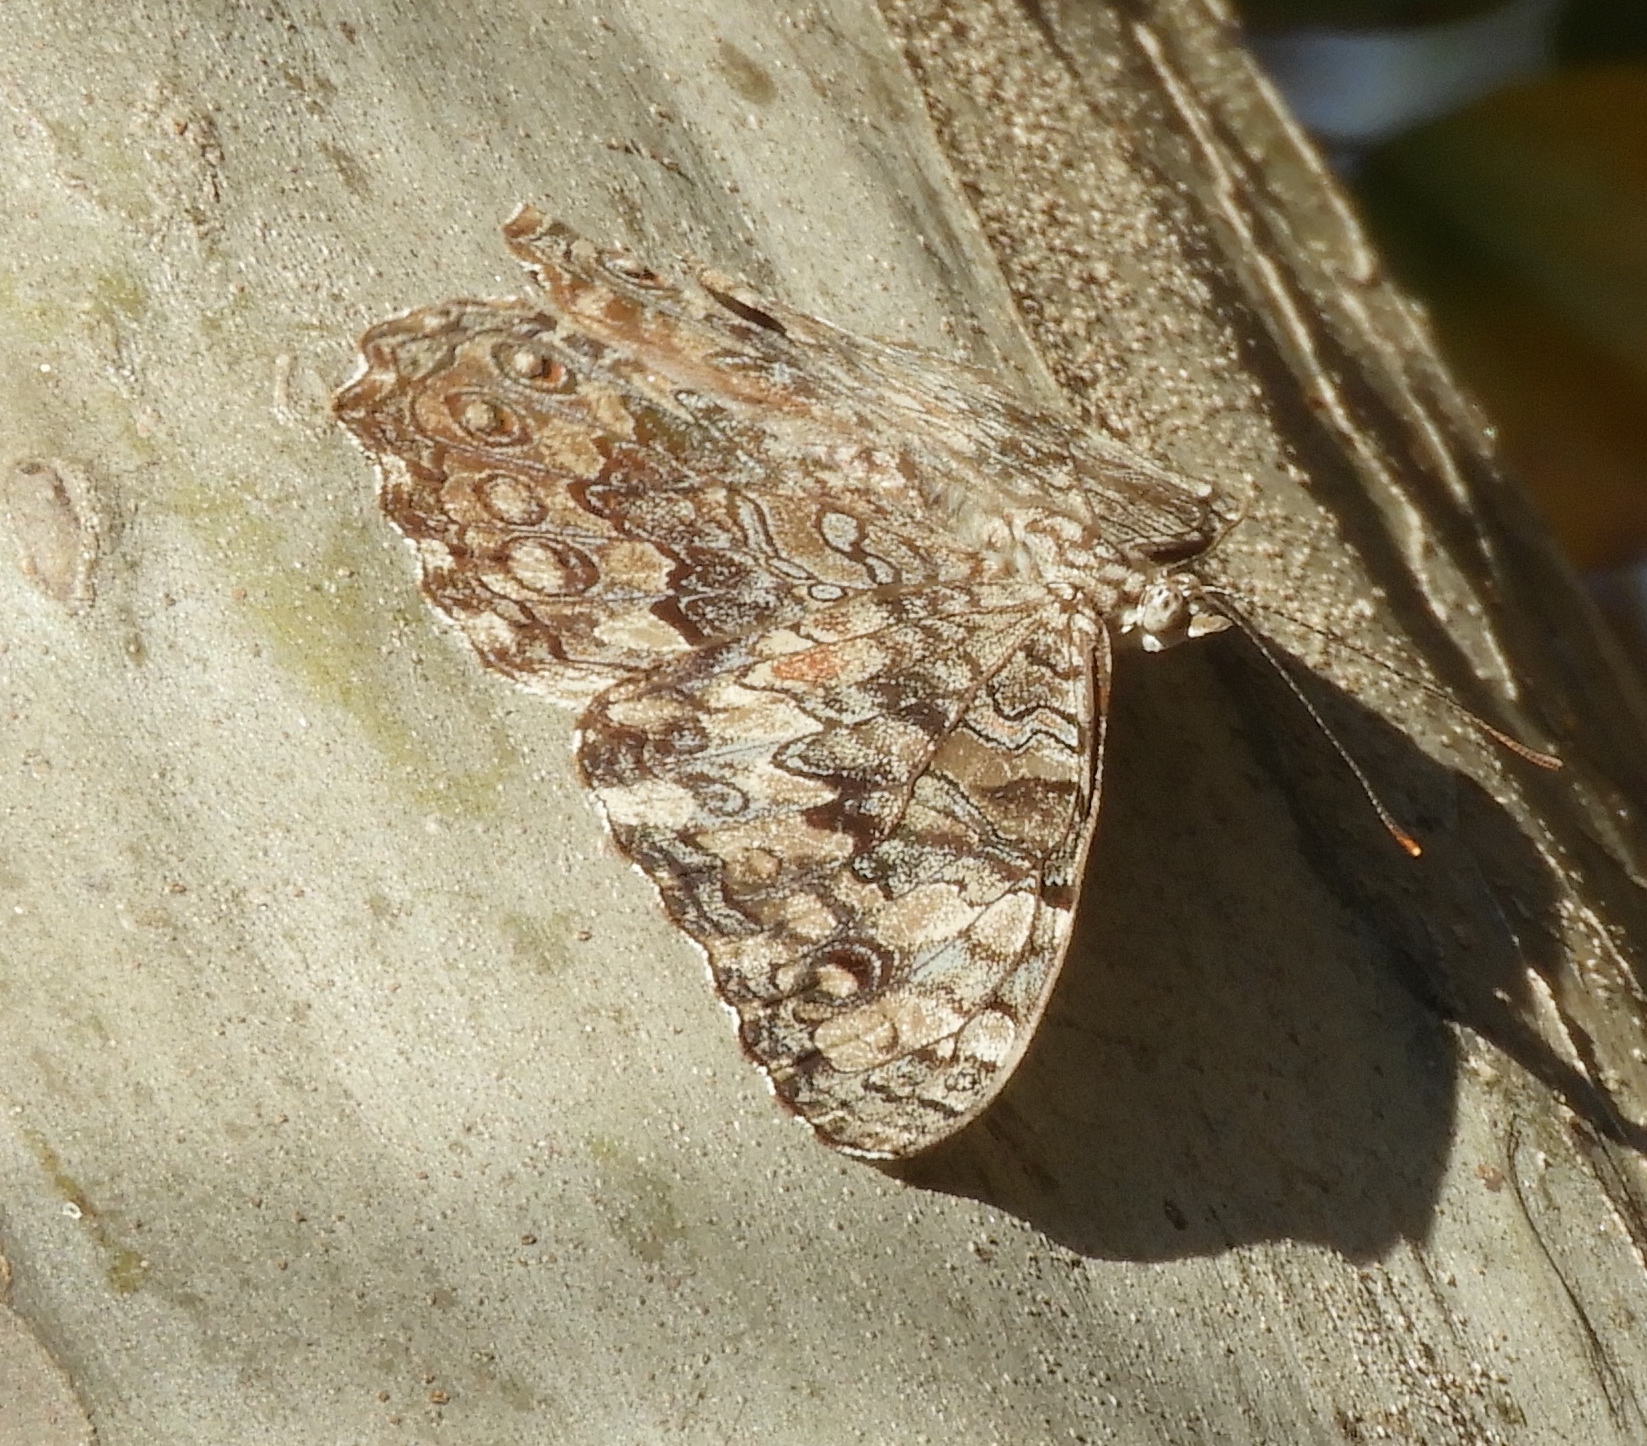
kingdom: Animalia
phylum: Arthropoda
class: Insecta
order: Lepidoptera
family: Nymphalidae
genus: Hamadryas
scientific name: Hamadryas
